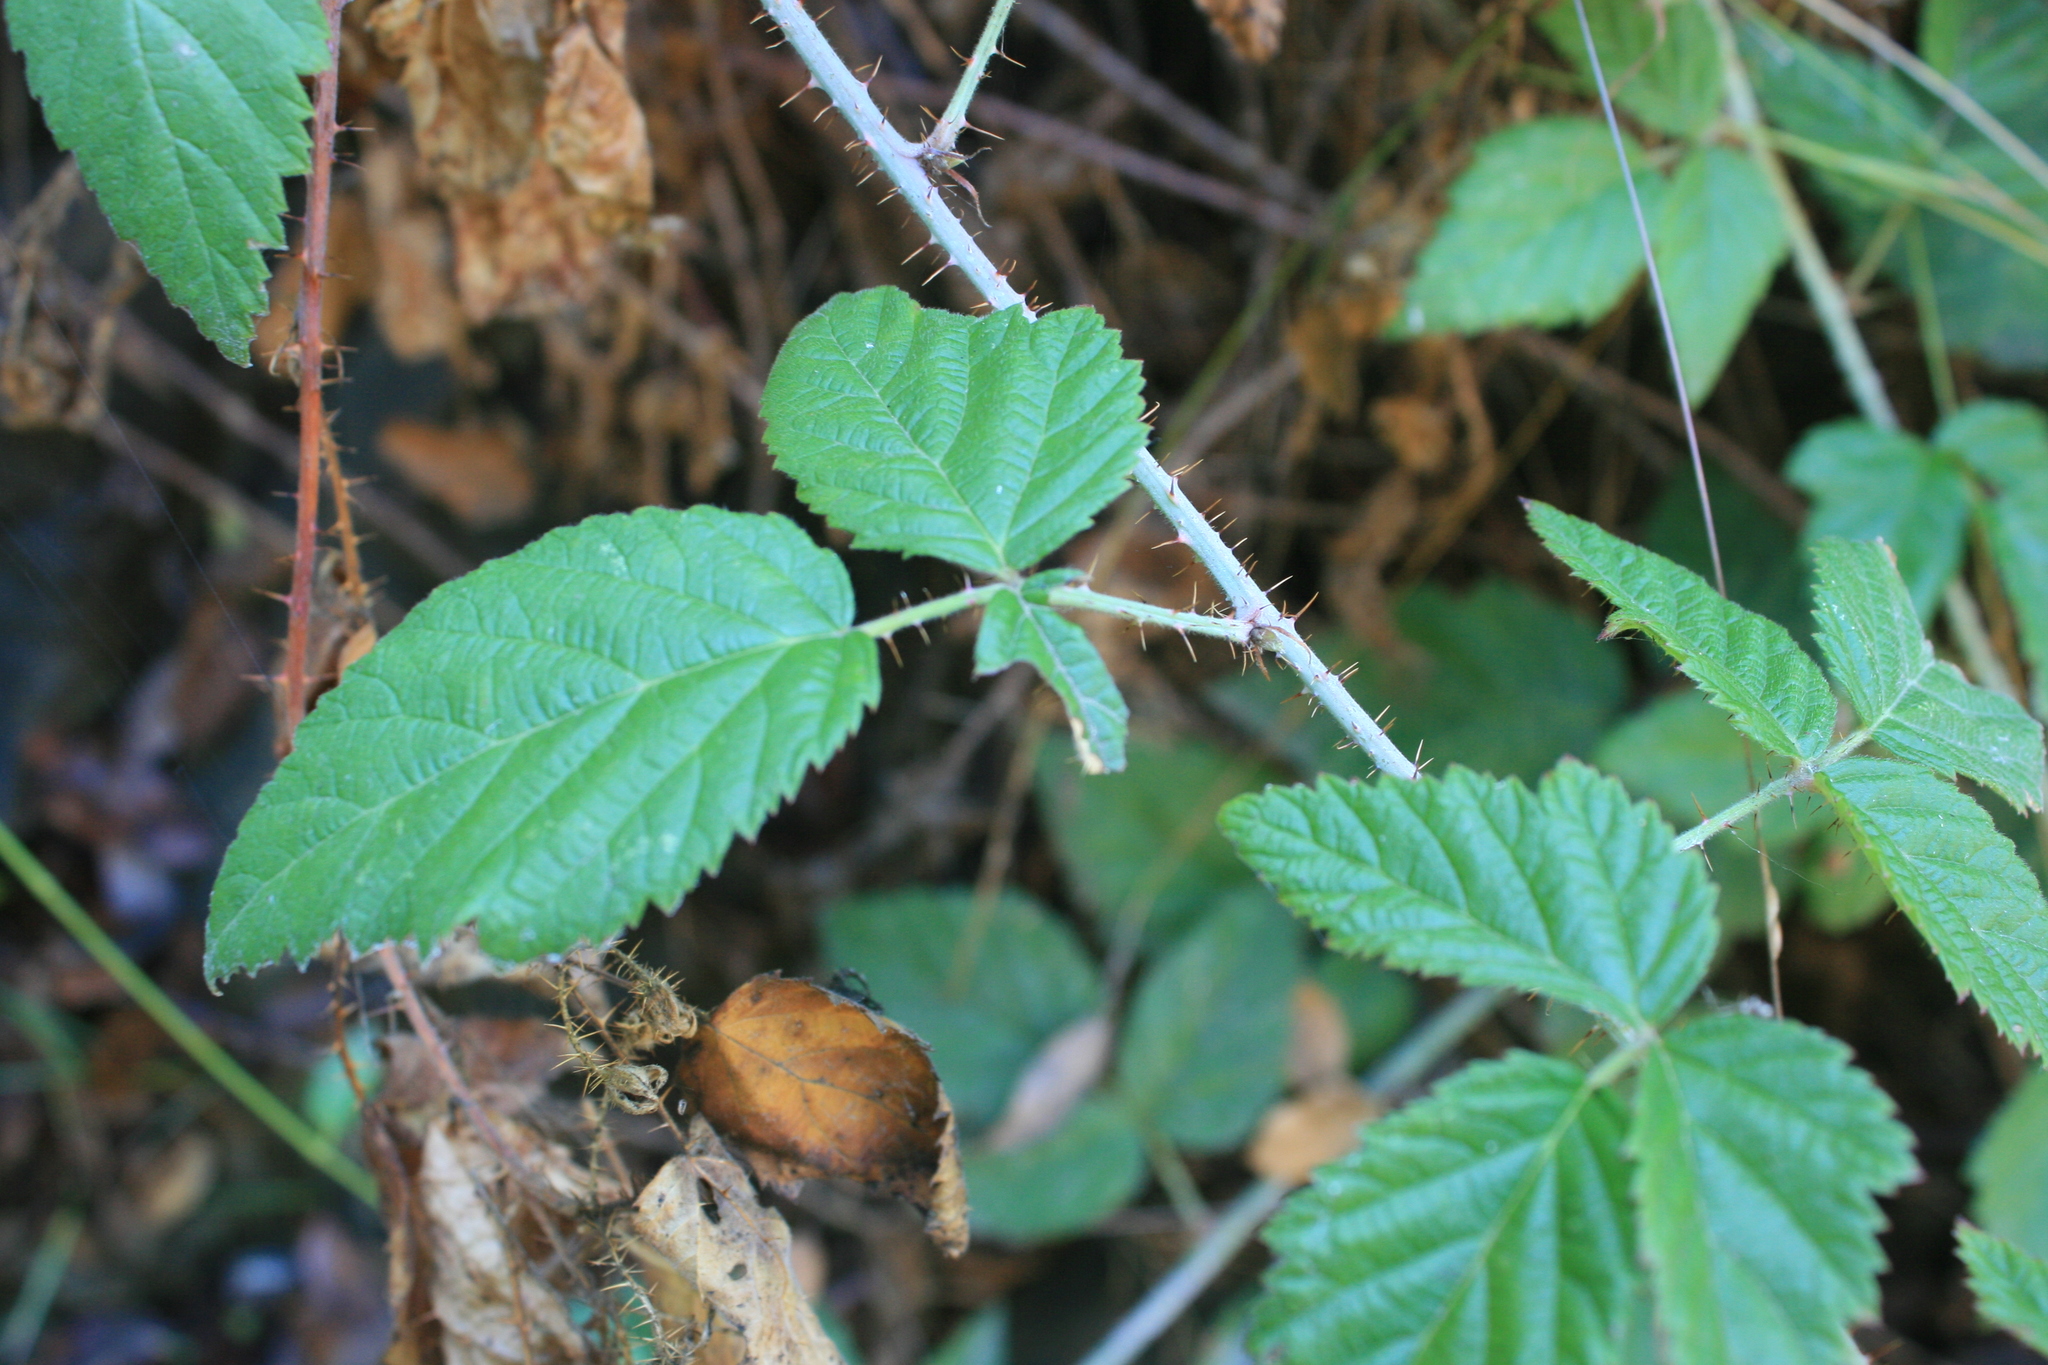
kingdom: Plantae
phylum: Tracheophyta
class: Magnoliopsida
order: Rosales
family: Rosaceae
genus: Rubus
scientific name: Rubus ursinus
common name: Pacific blackberry
